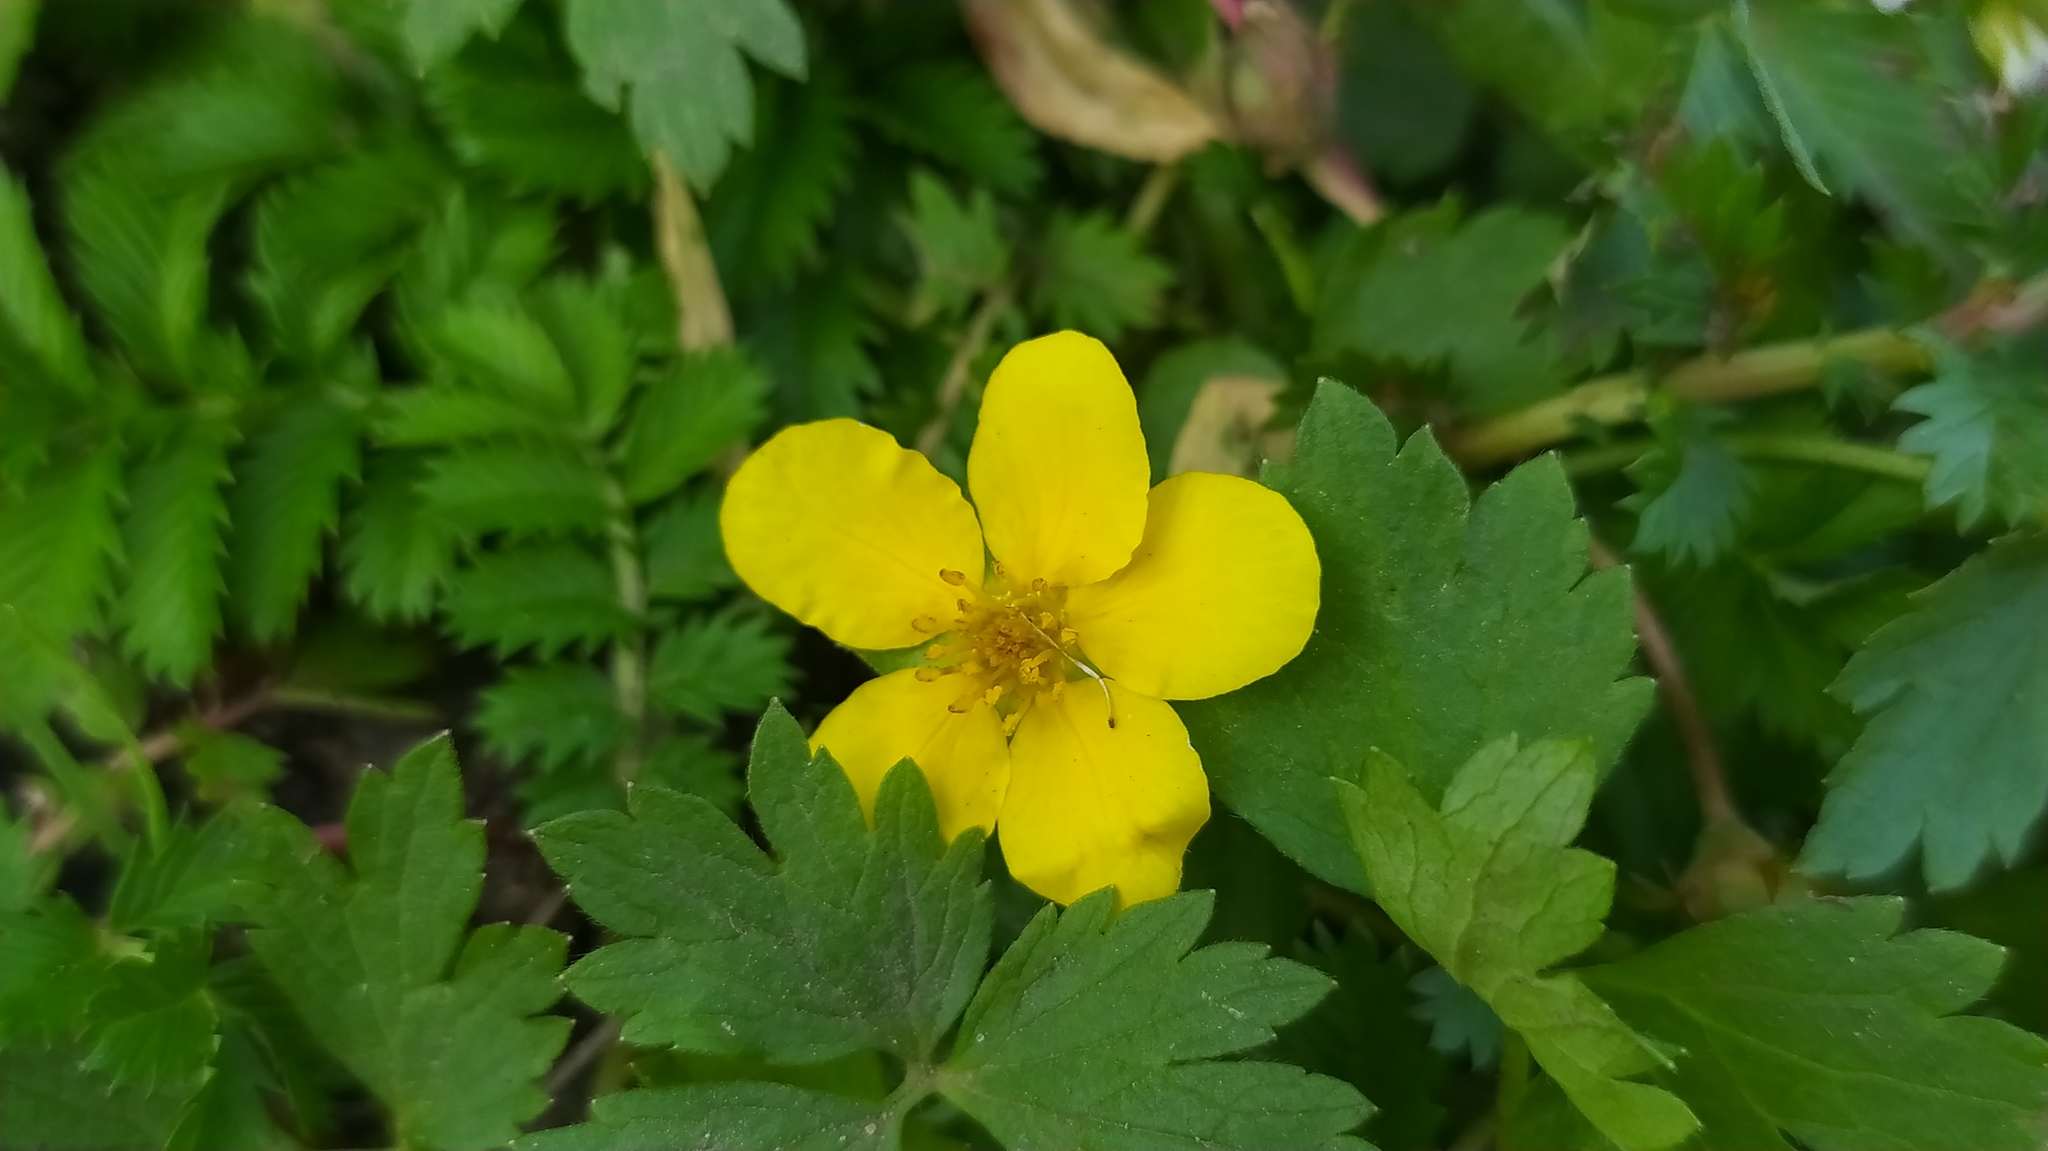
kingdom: Plantae
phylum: Tracheophyta
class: Magnoliopsida
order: Rosales
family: Rosaceae
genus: Argentina
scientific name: Argentina anserina
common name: Common silverweed
